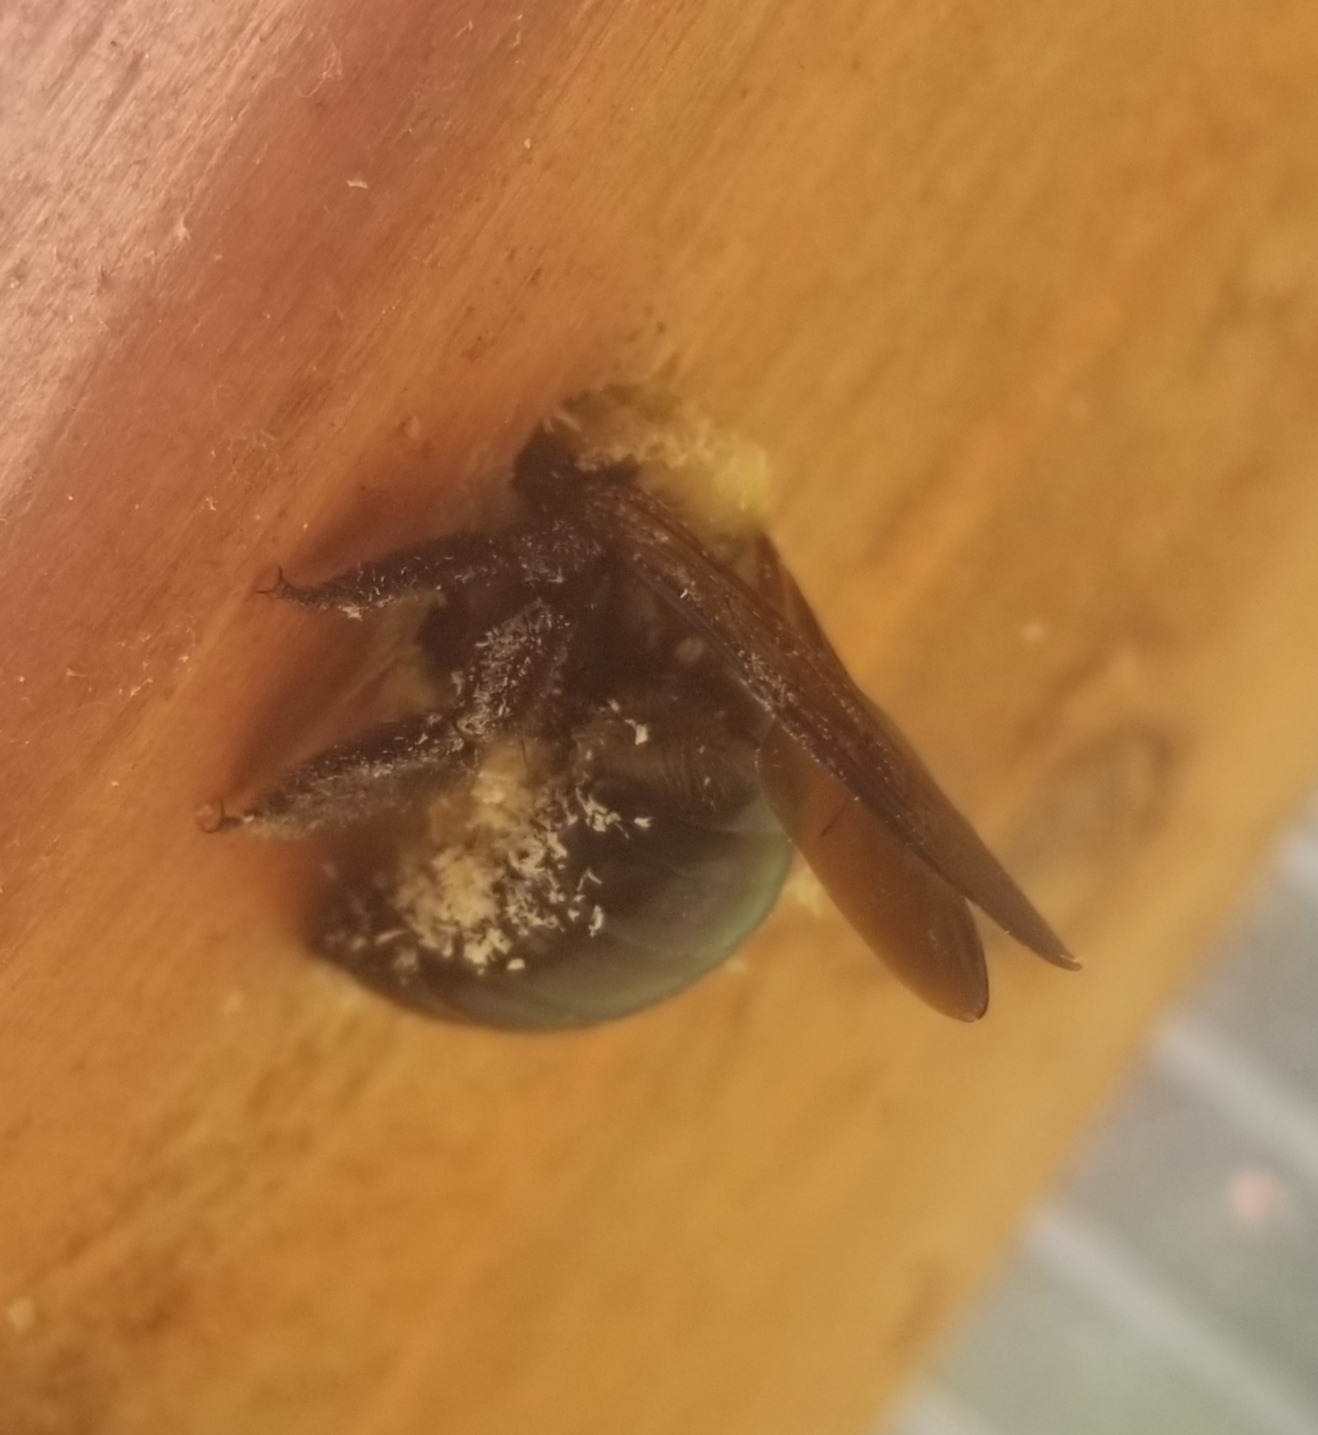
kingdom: Animalia
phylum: Arthropoda
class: Insecta
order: Hymenoptera
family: Apidae
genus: Xylocopa
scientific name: Xylocopa virginica
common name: Carpenter bee
